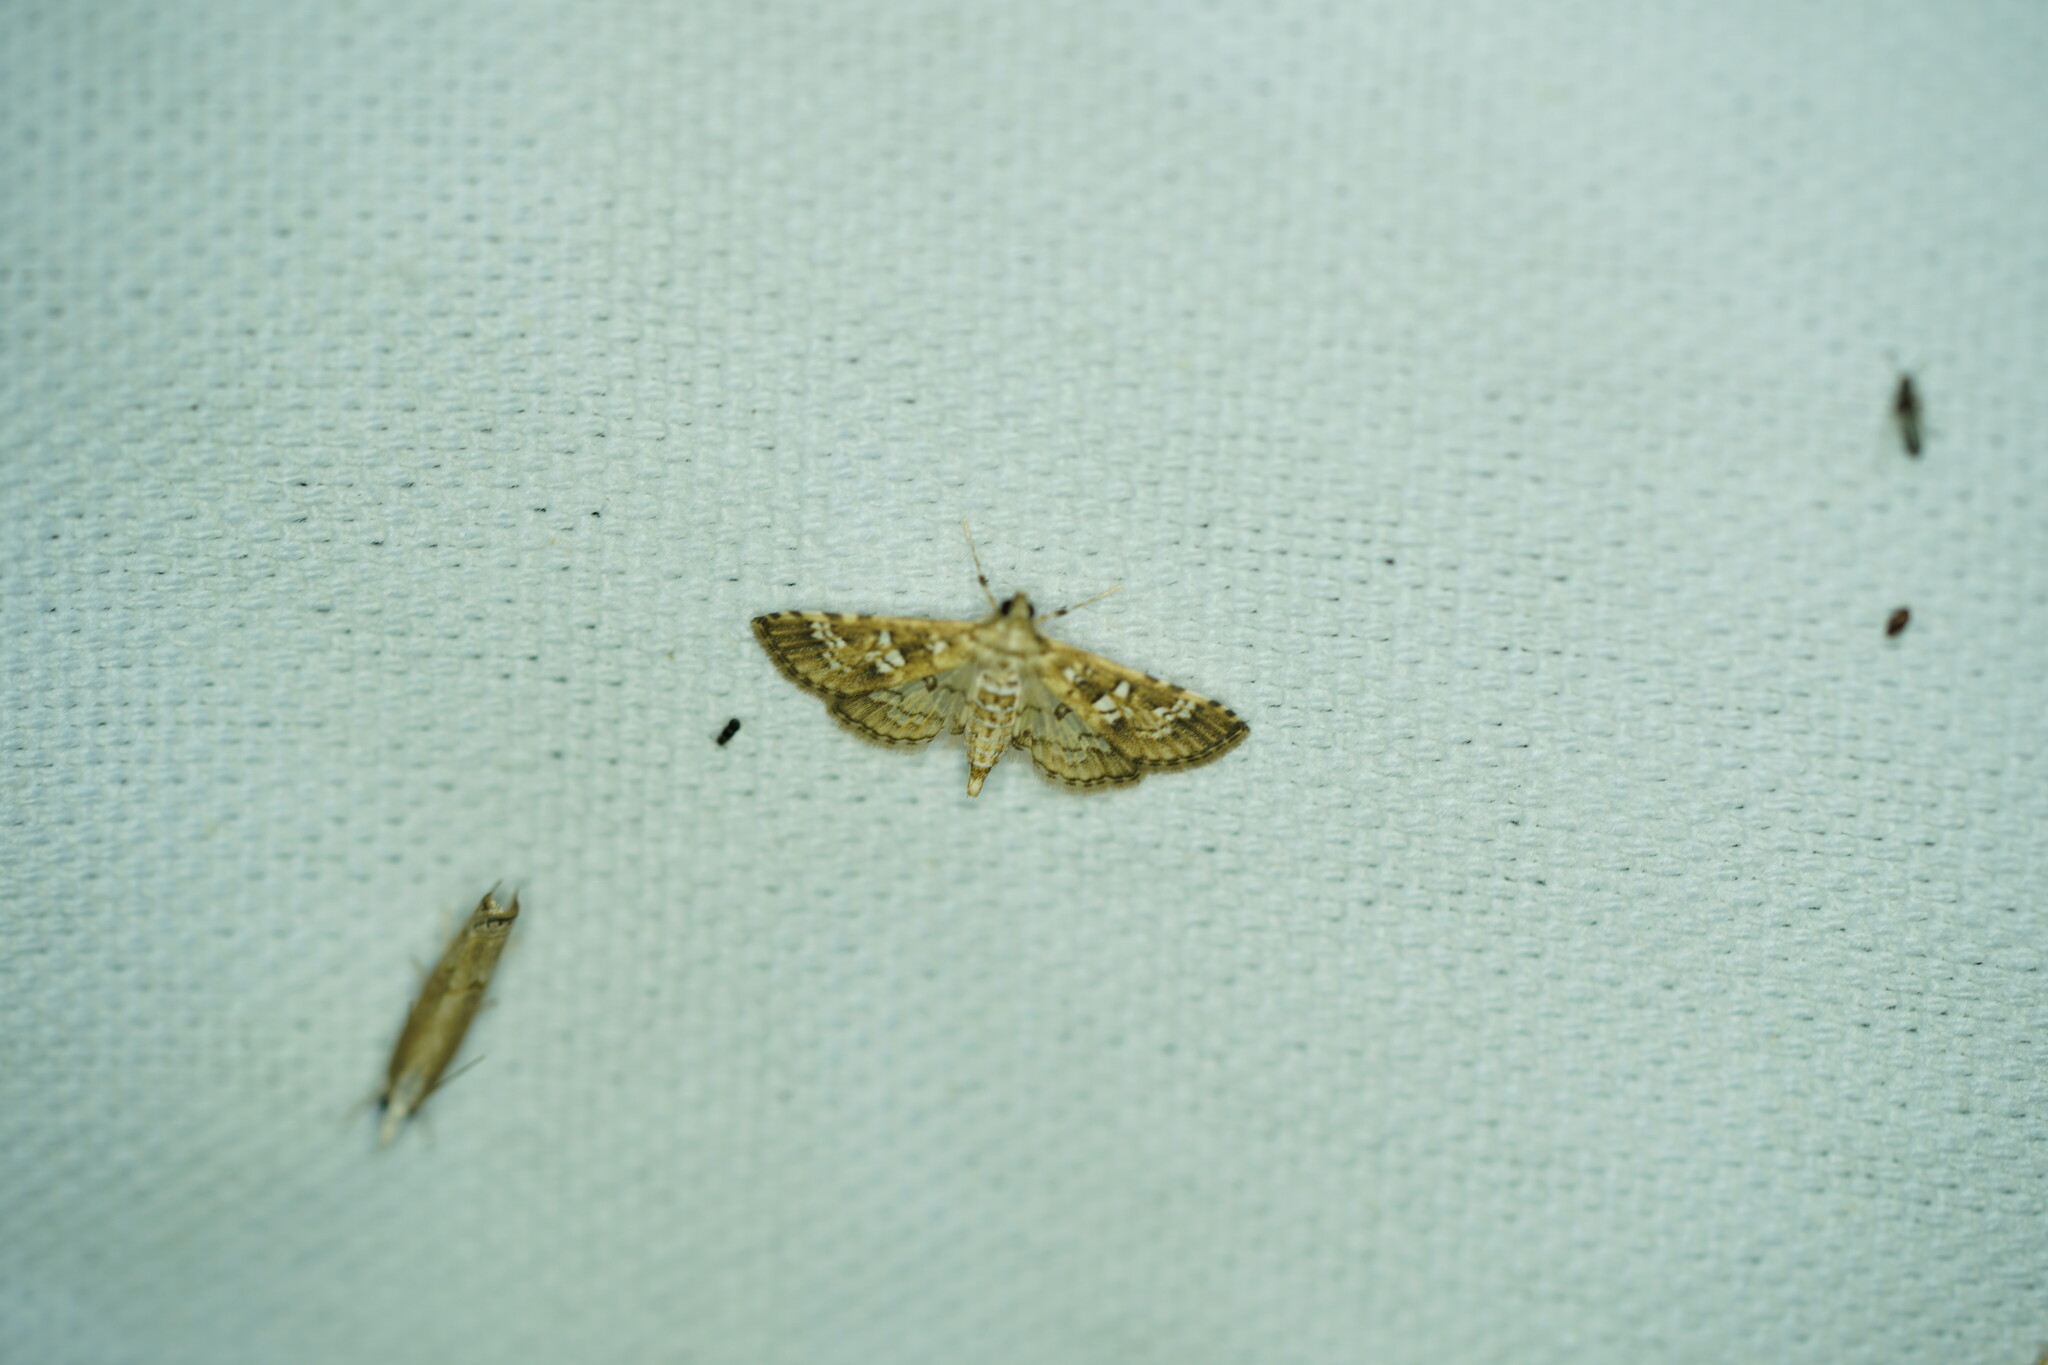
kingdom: Animalia
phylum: Arthropoda
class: Insecta
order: Lepidoptera
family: Crambidae
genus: Samea
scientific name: Samea multiplicalis
